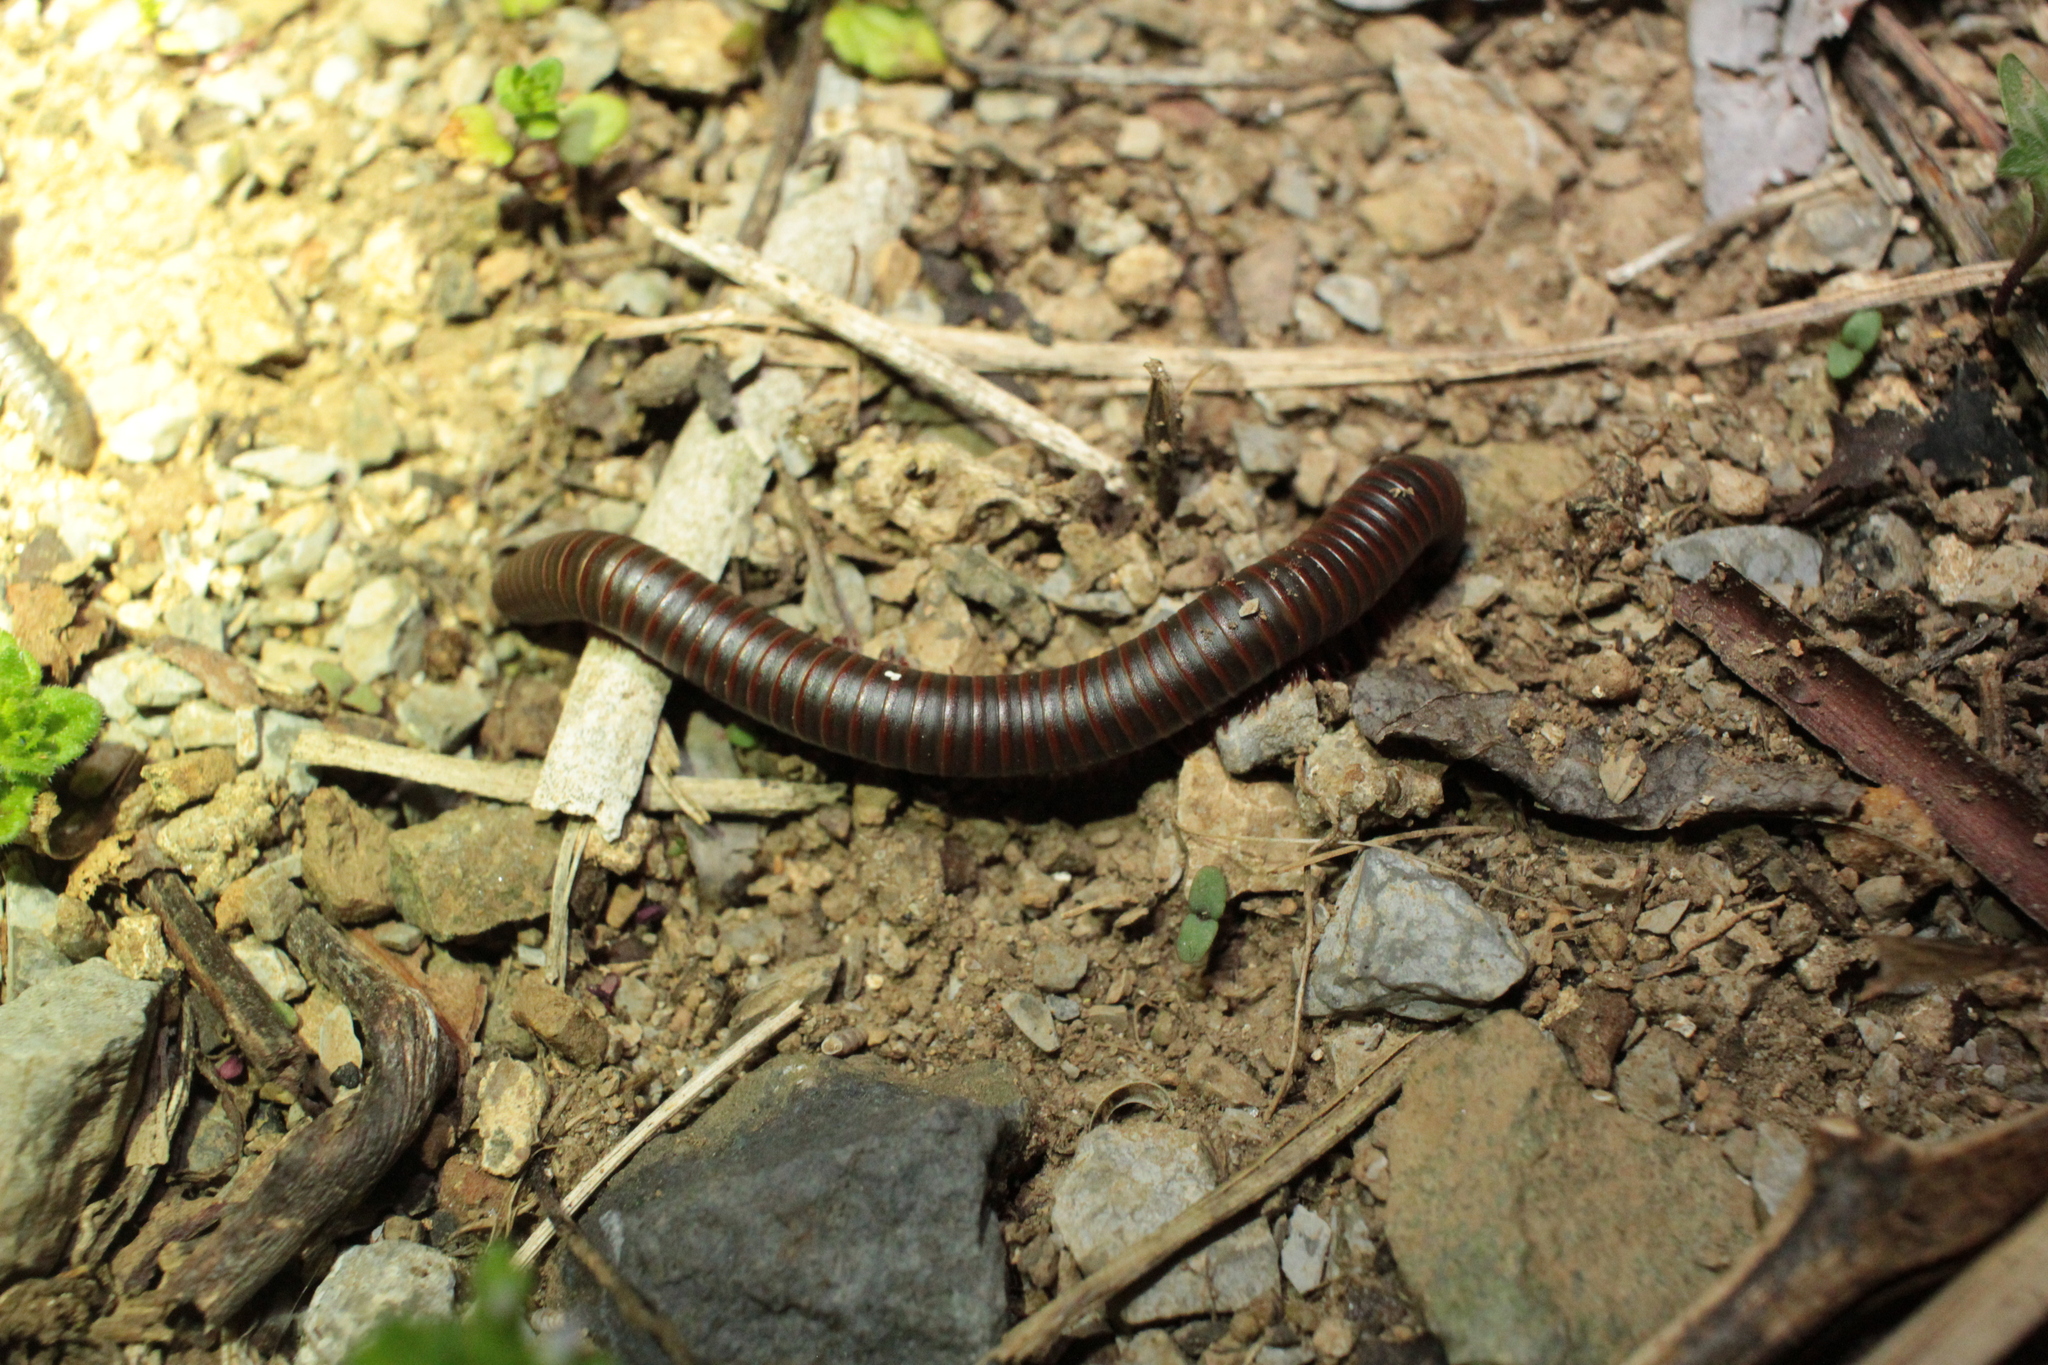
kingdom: Animalia
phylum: Arthropoda
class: Diplopoda
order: Spirobolida
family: Spirobolidae
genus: Narceus
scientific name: Narceus
